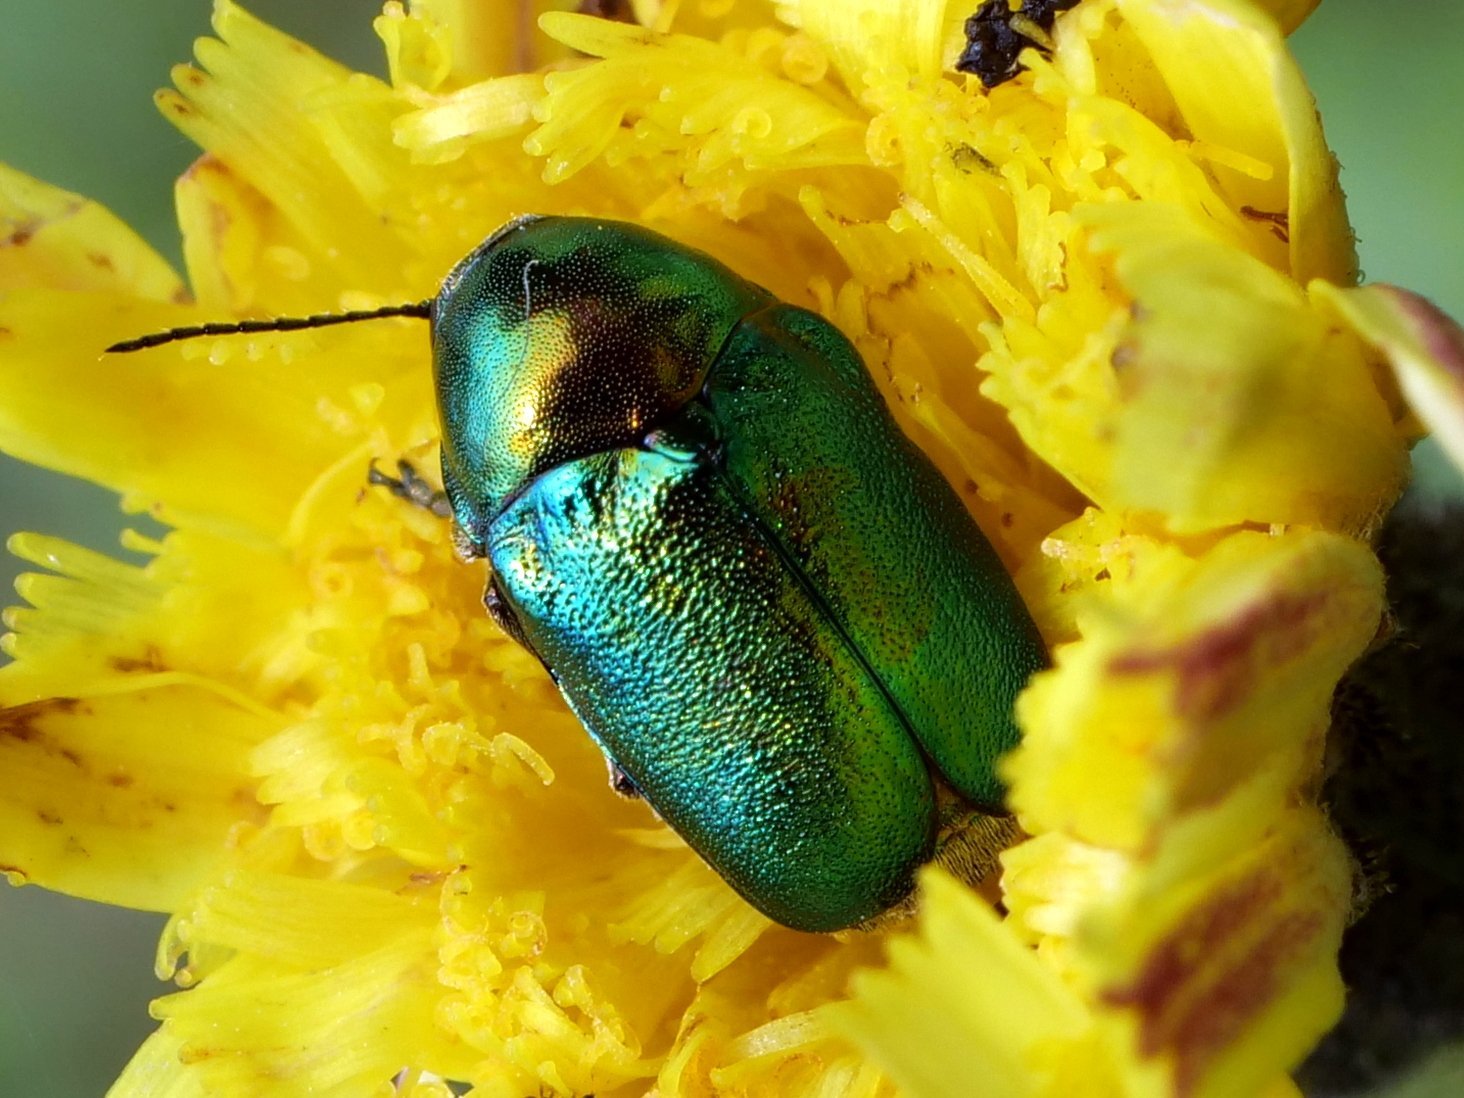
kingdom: Animalia
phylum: Arthropoda
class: Insecta
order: Coleoptera
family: Chrysomelidae
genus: Cryptocephalus
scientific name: Cryptocephalus
